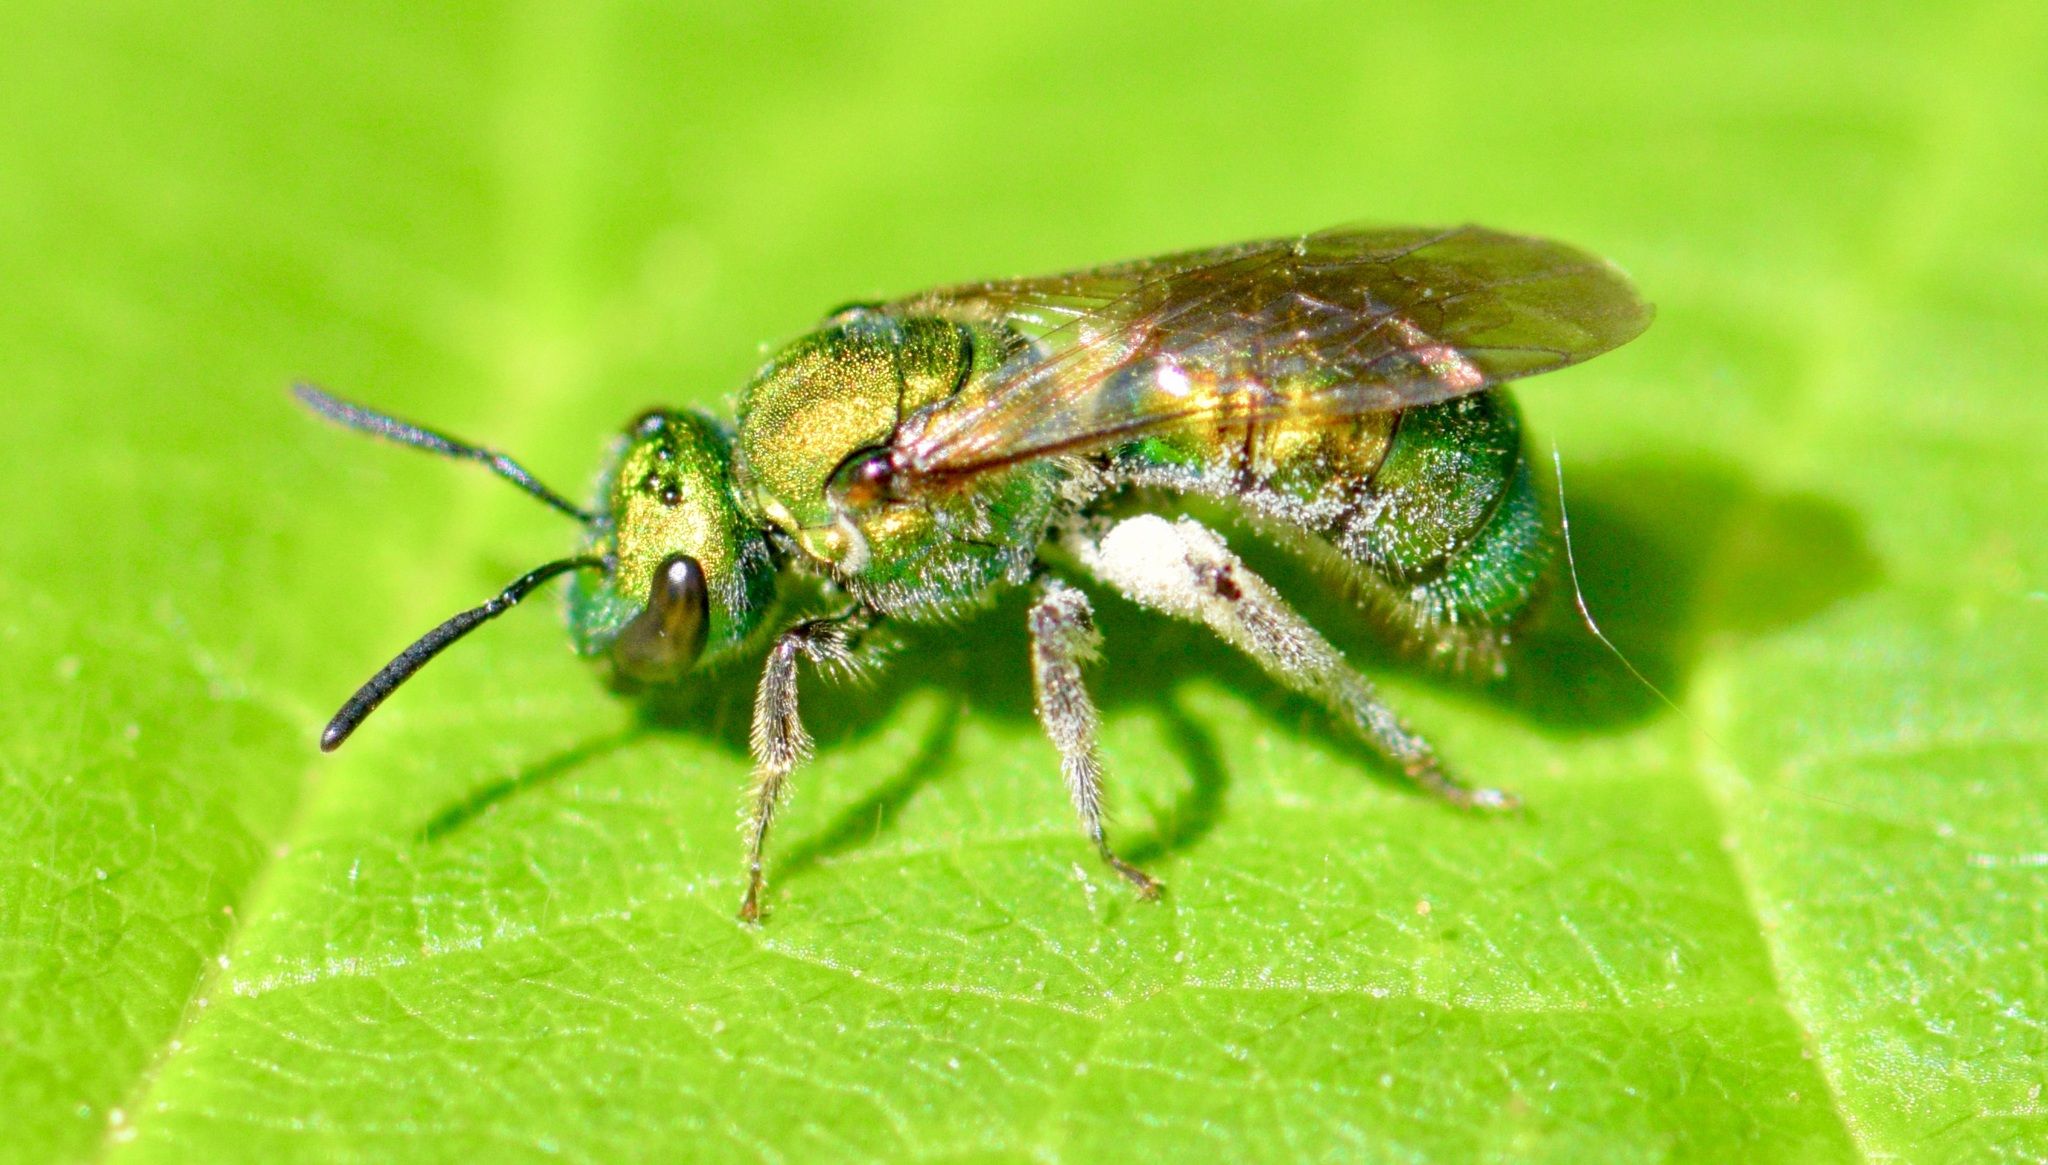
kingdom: Animalia
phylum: Arthropoda
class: Insecta
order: Hymenoptera
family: Halictidae
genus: Augochlora
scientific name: Augochlora pura
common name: Pure green sweat bee
